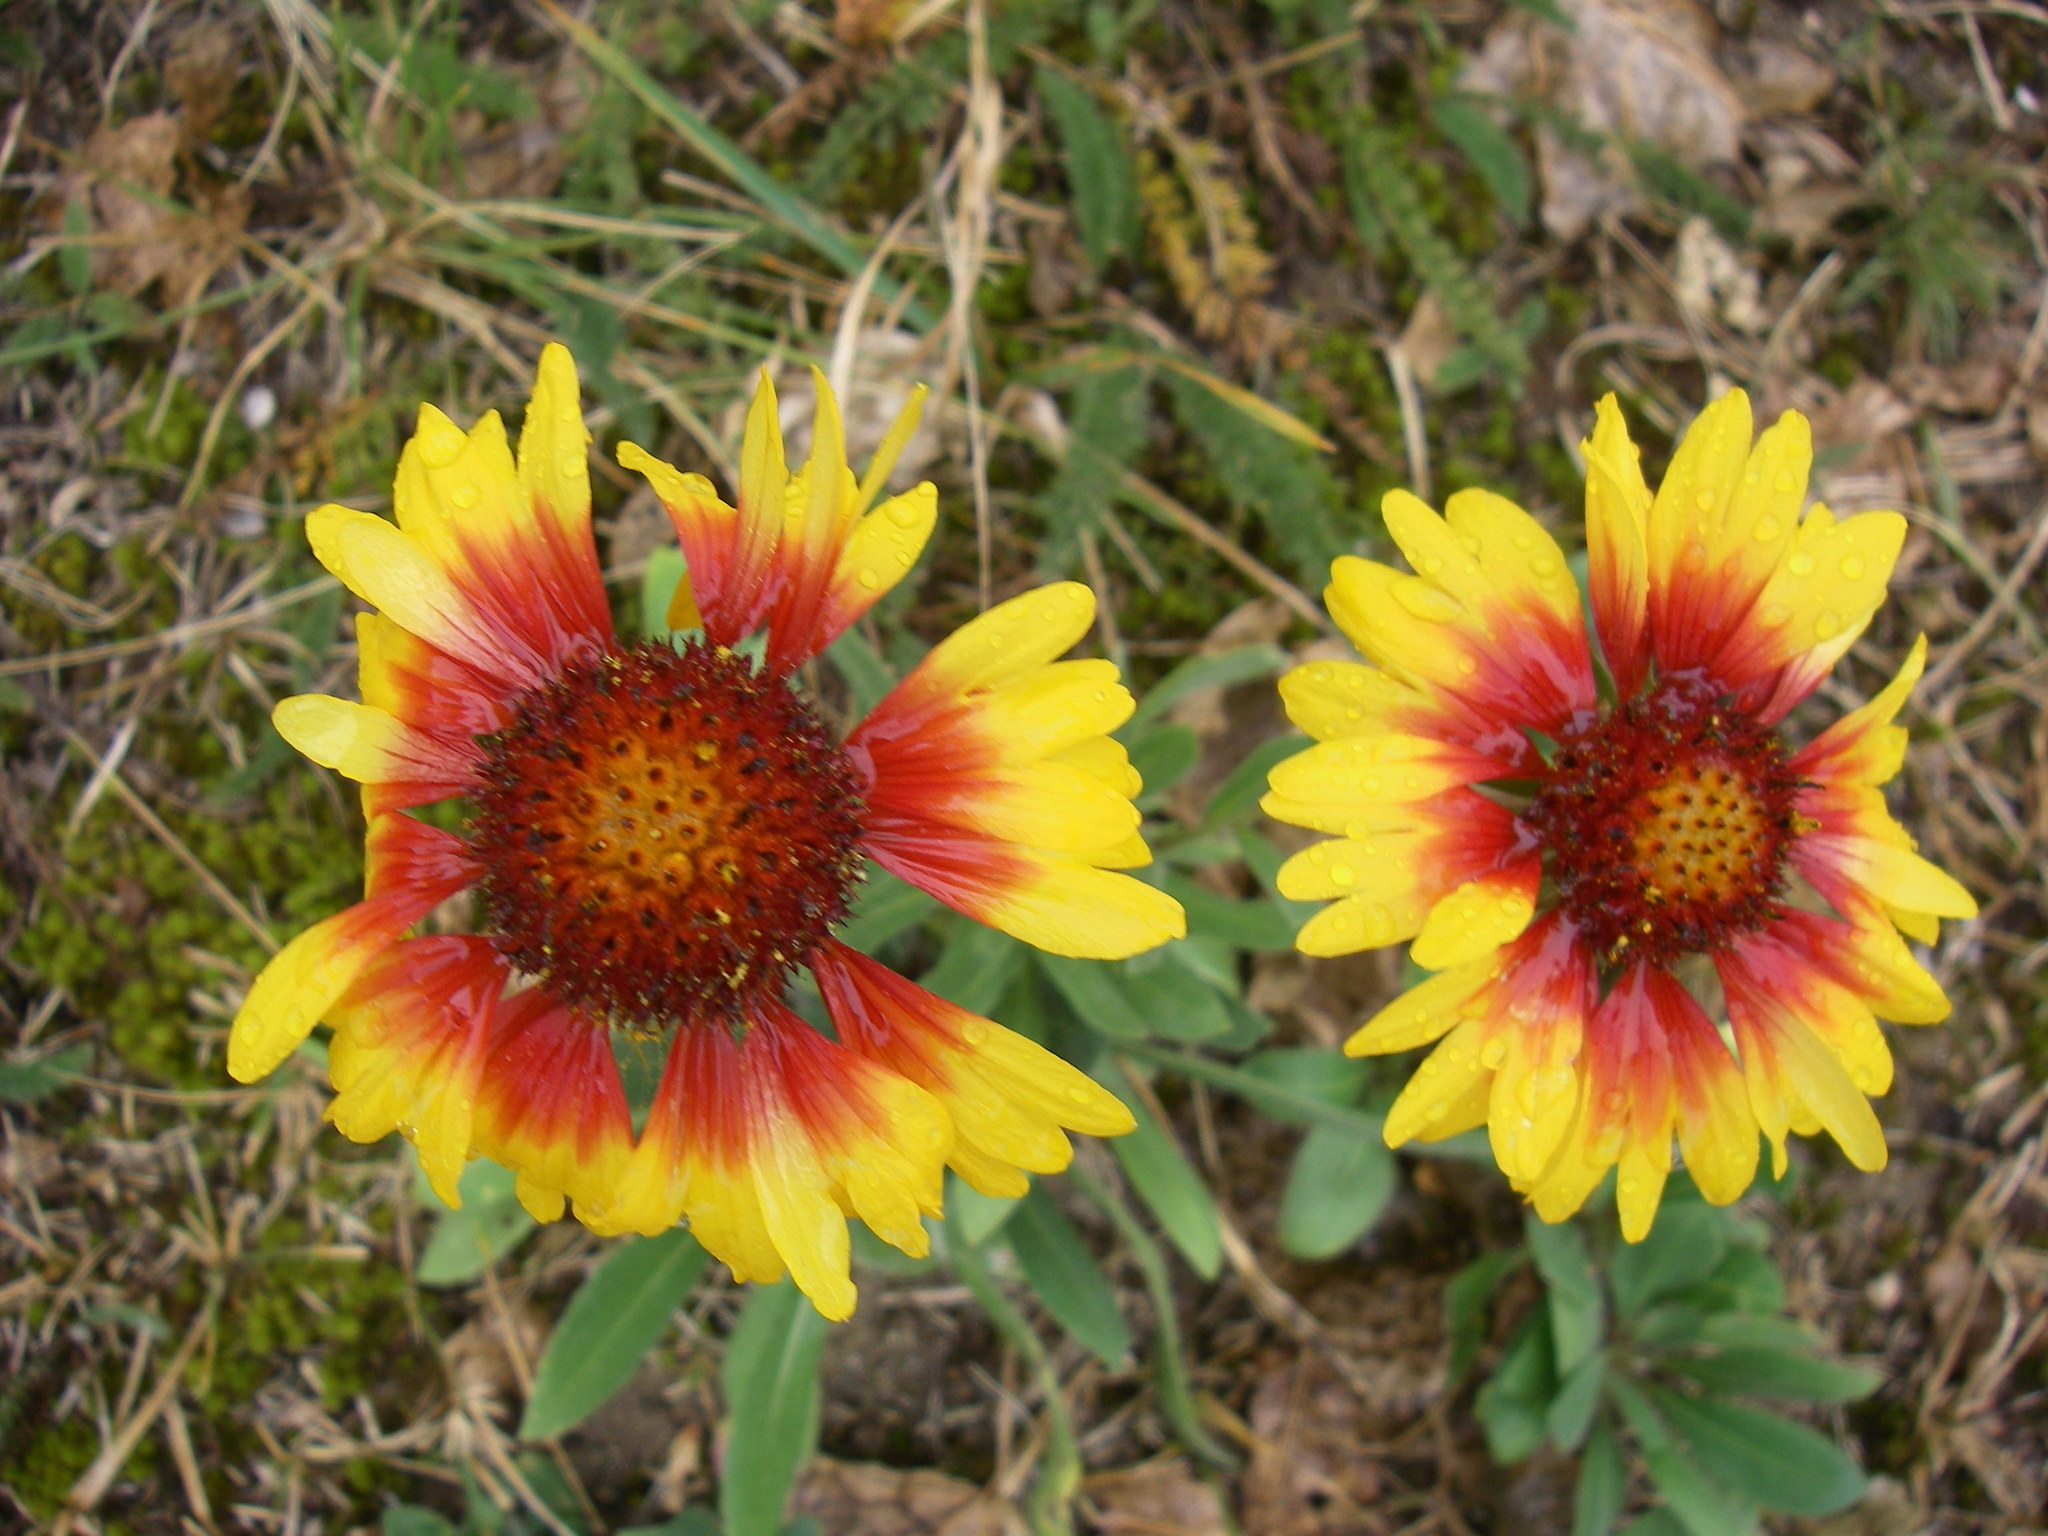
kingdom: Plantae
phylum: Tracheophyta
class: Magnoliopsida
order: Asterales
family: Asteraceae
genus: Gaillardia
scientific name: Gaillardia grandiflora
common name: Blanket flower
